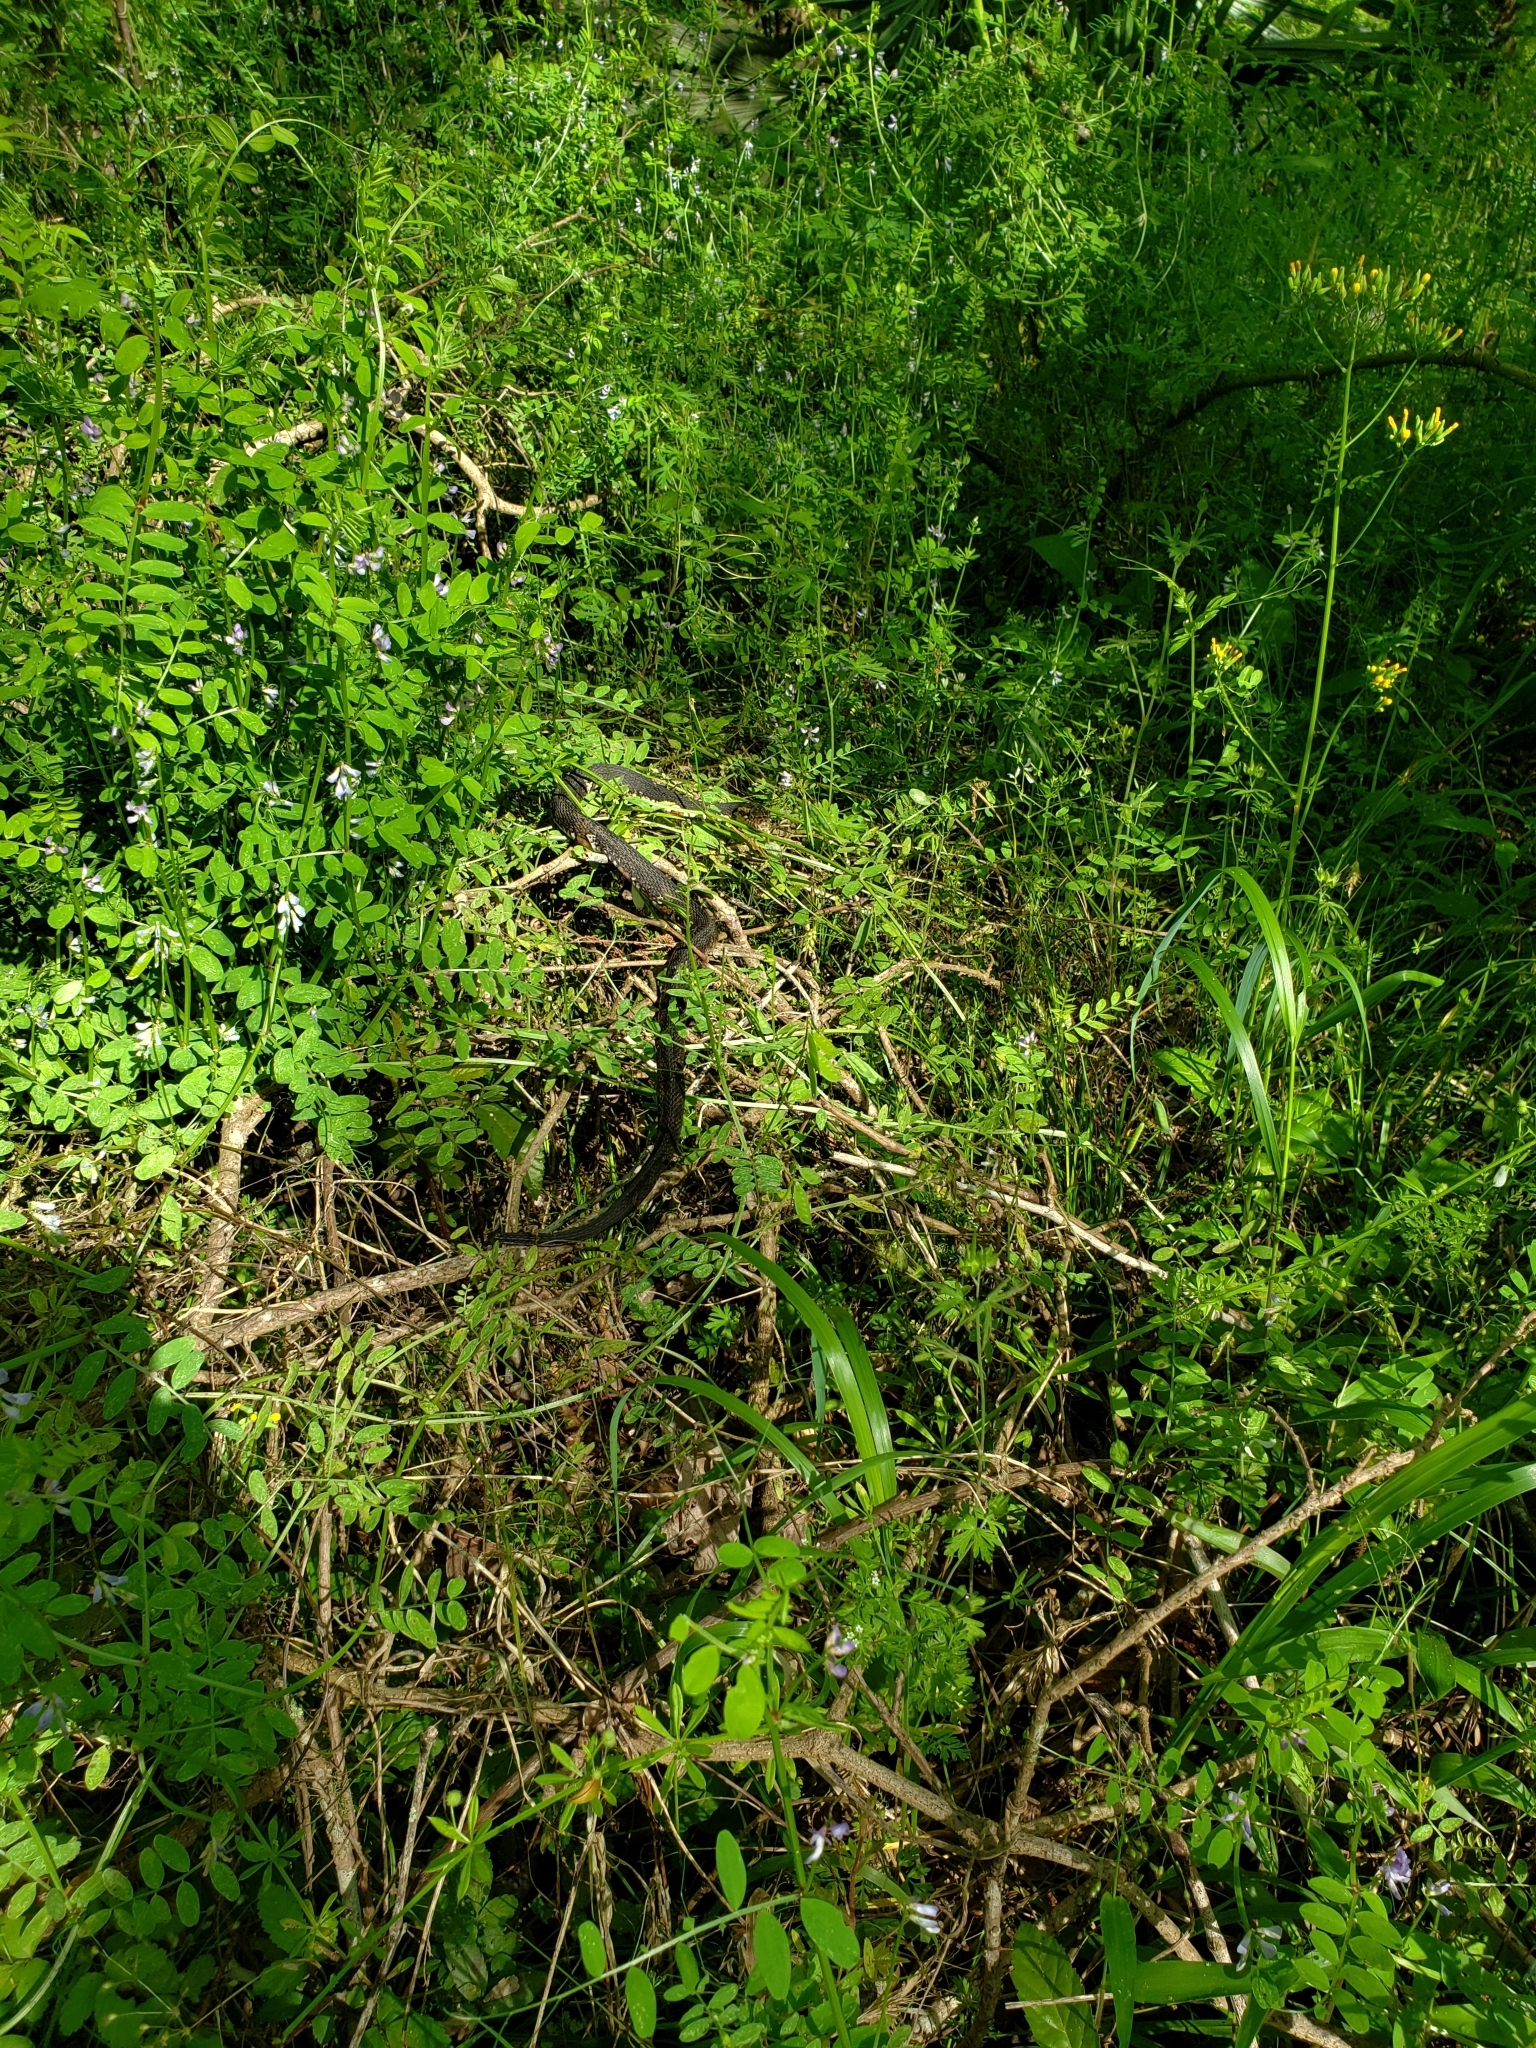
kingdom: Animalia
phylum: Chordata
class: Squamata
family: Colubridae
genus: Nerodia
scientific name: Nerodia fasciata
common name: Southern water snake
